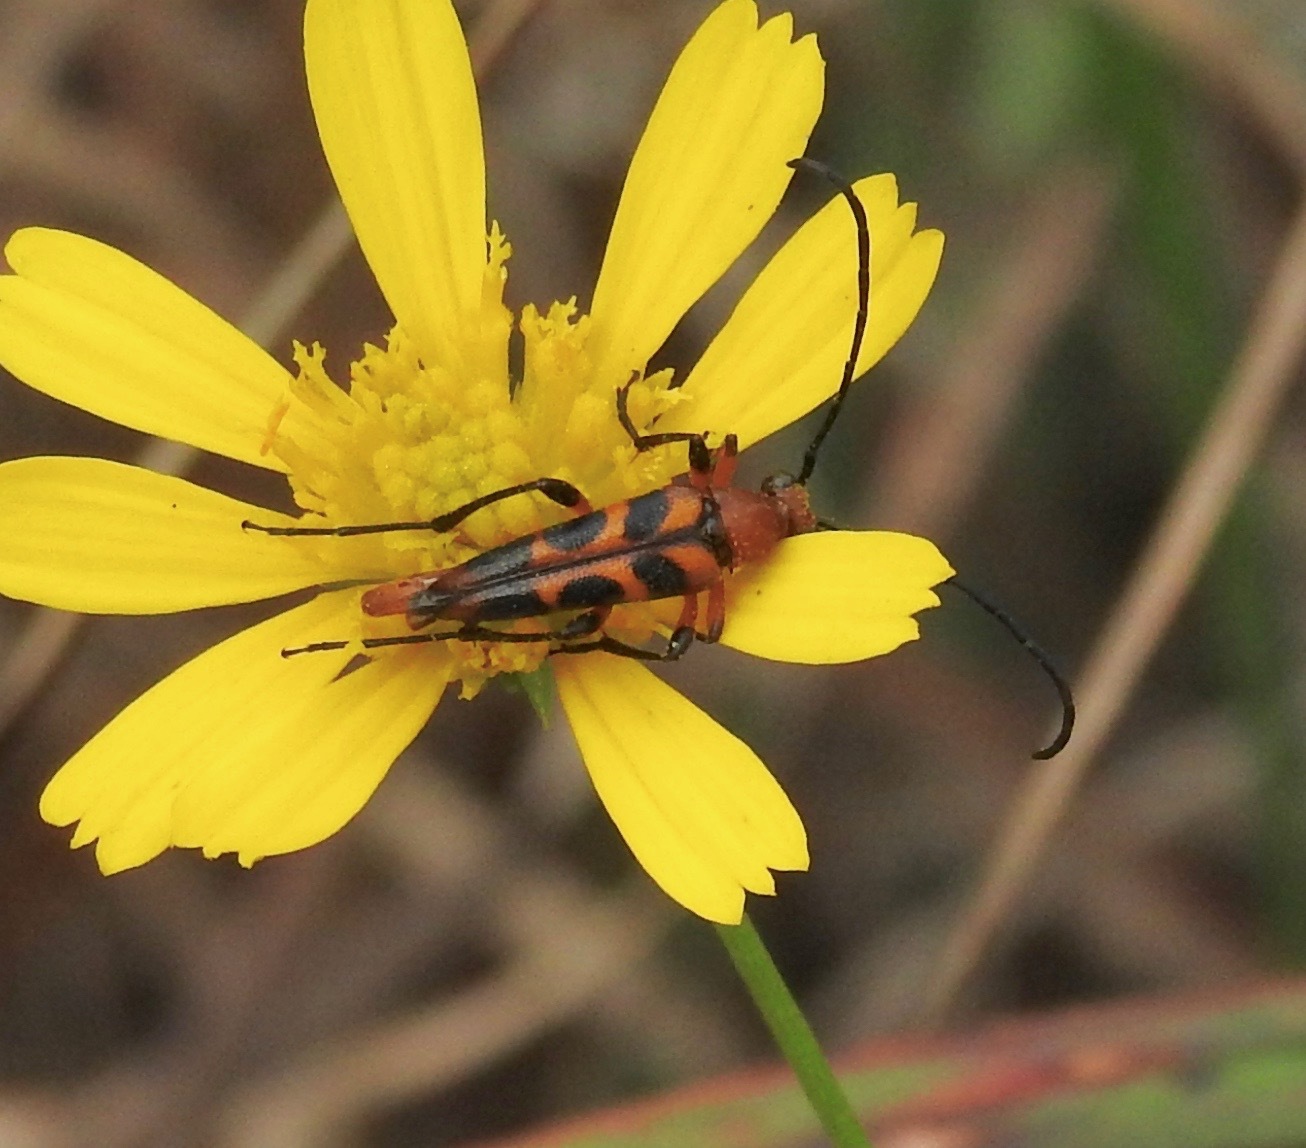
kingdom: Animalia
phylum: Arthropoda
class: Insecta
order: Coleoptera
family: Cerambycidae
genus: Strangalia
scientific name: Strangalia sexnotata
